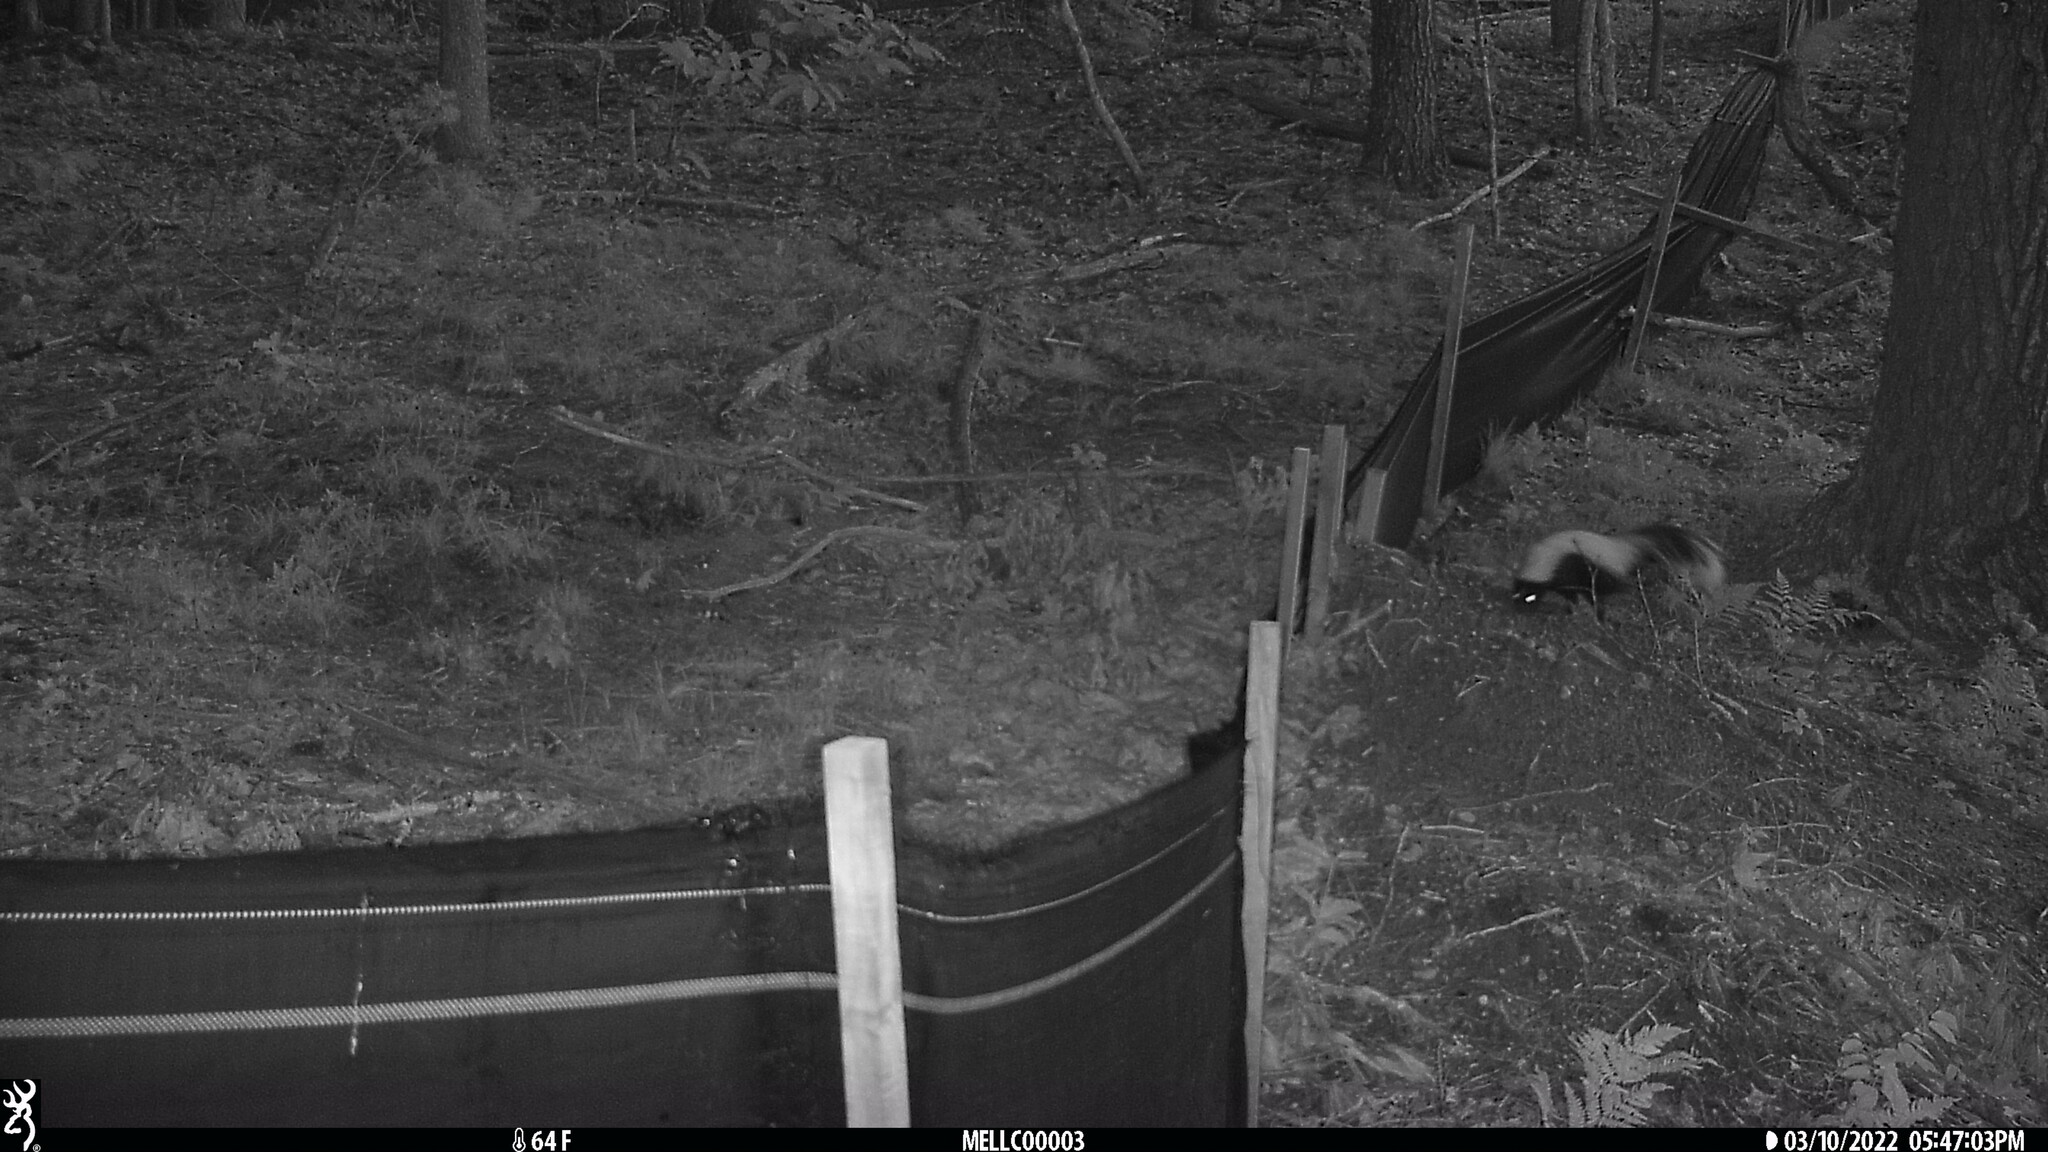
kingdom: Animalia
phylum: Chordata
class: Mammalia
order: Carnivora
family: Mephitidae
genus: Mephitis
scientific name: Mephitis mephitis
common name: Striped skunk
